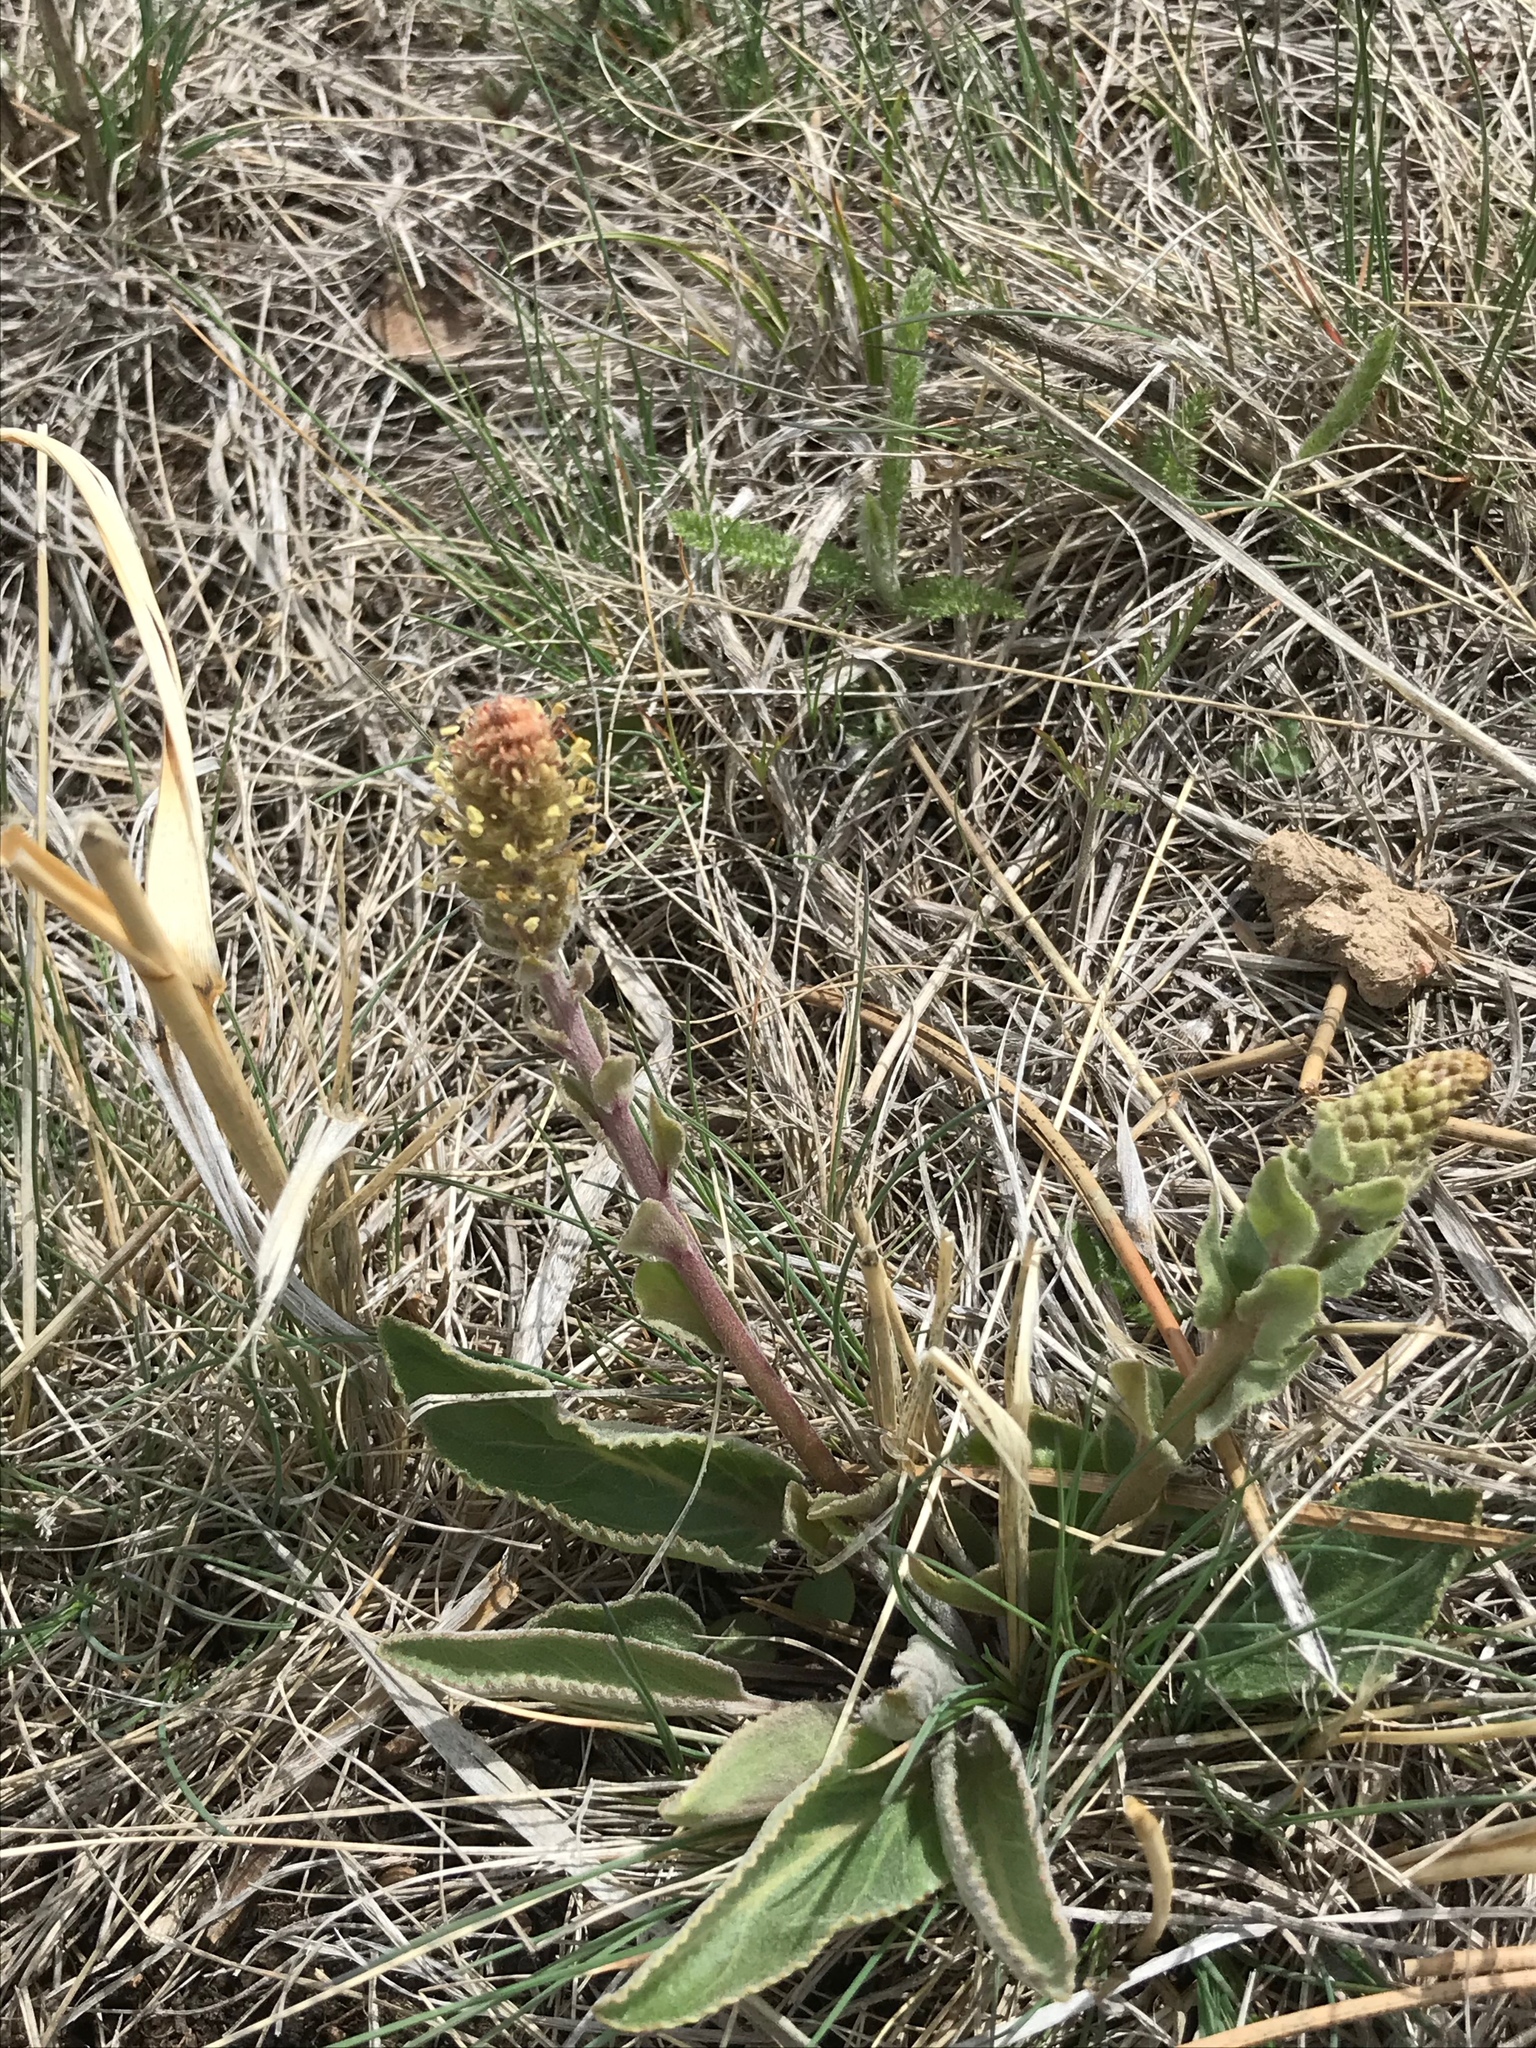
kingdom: Plantae
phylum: Tracheophyta
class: Magnoliopsida
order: Lamiales
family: Plantaginaceae
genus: Synthyris
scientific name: Synthyris wyomingensis
